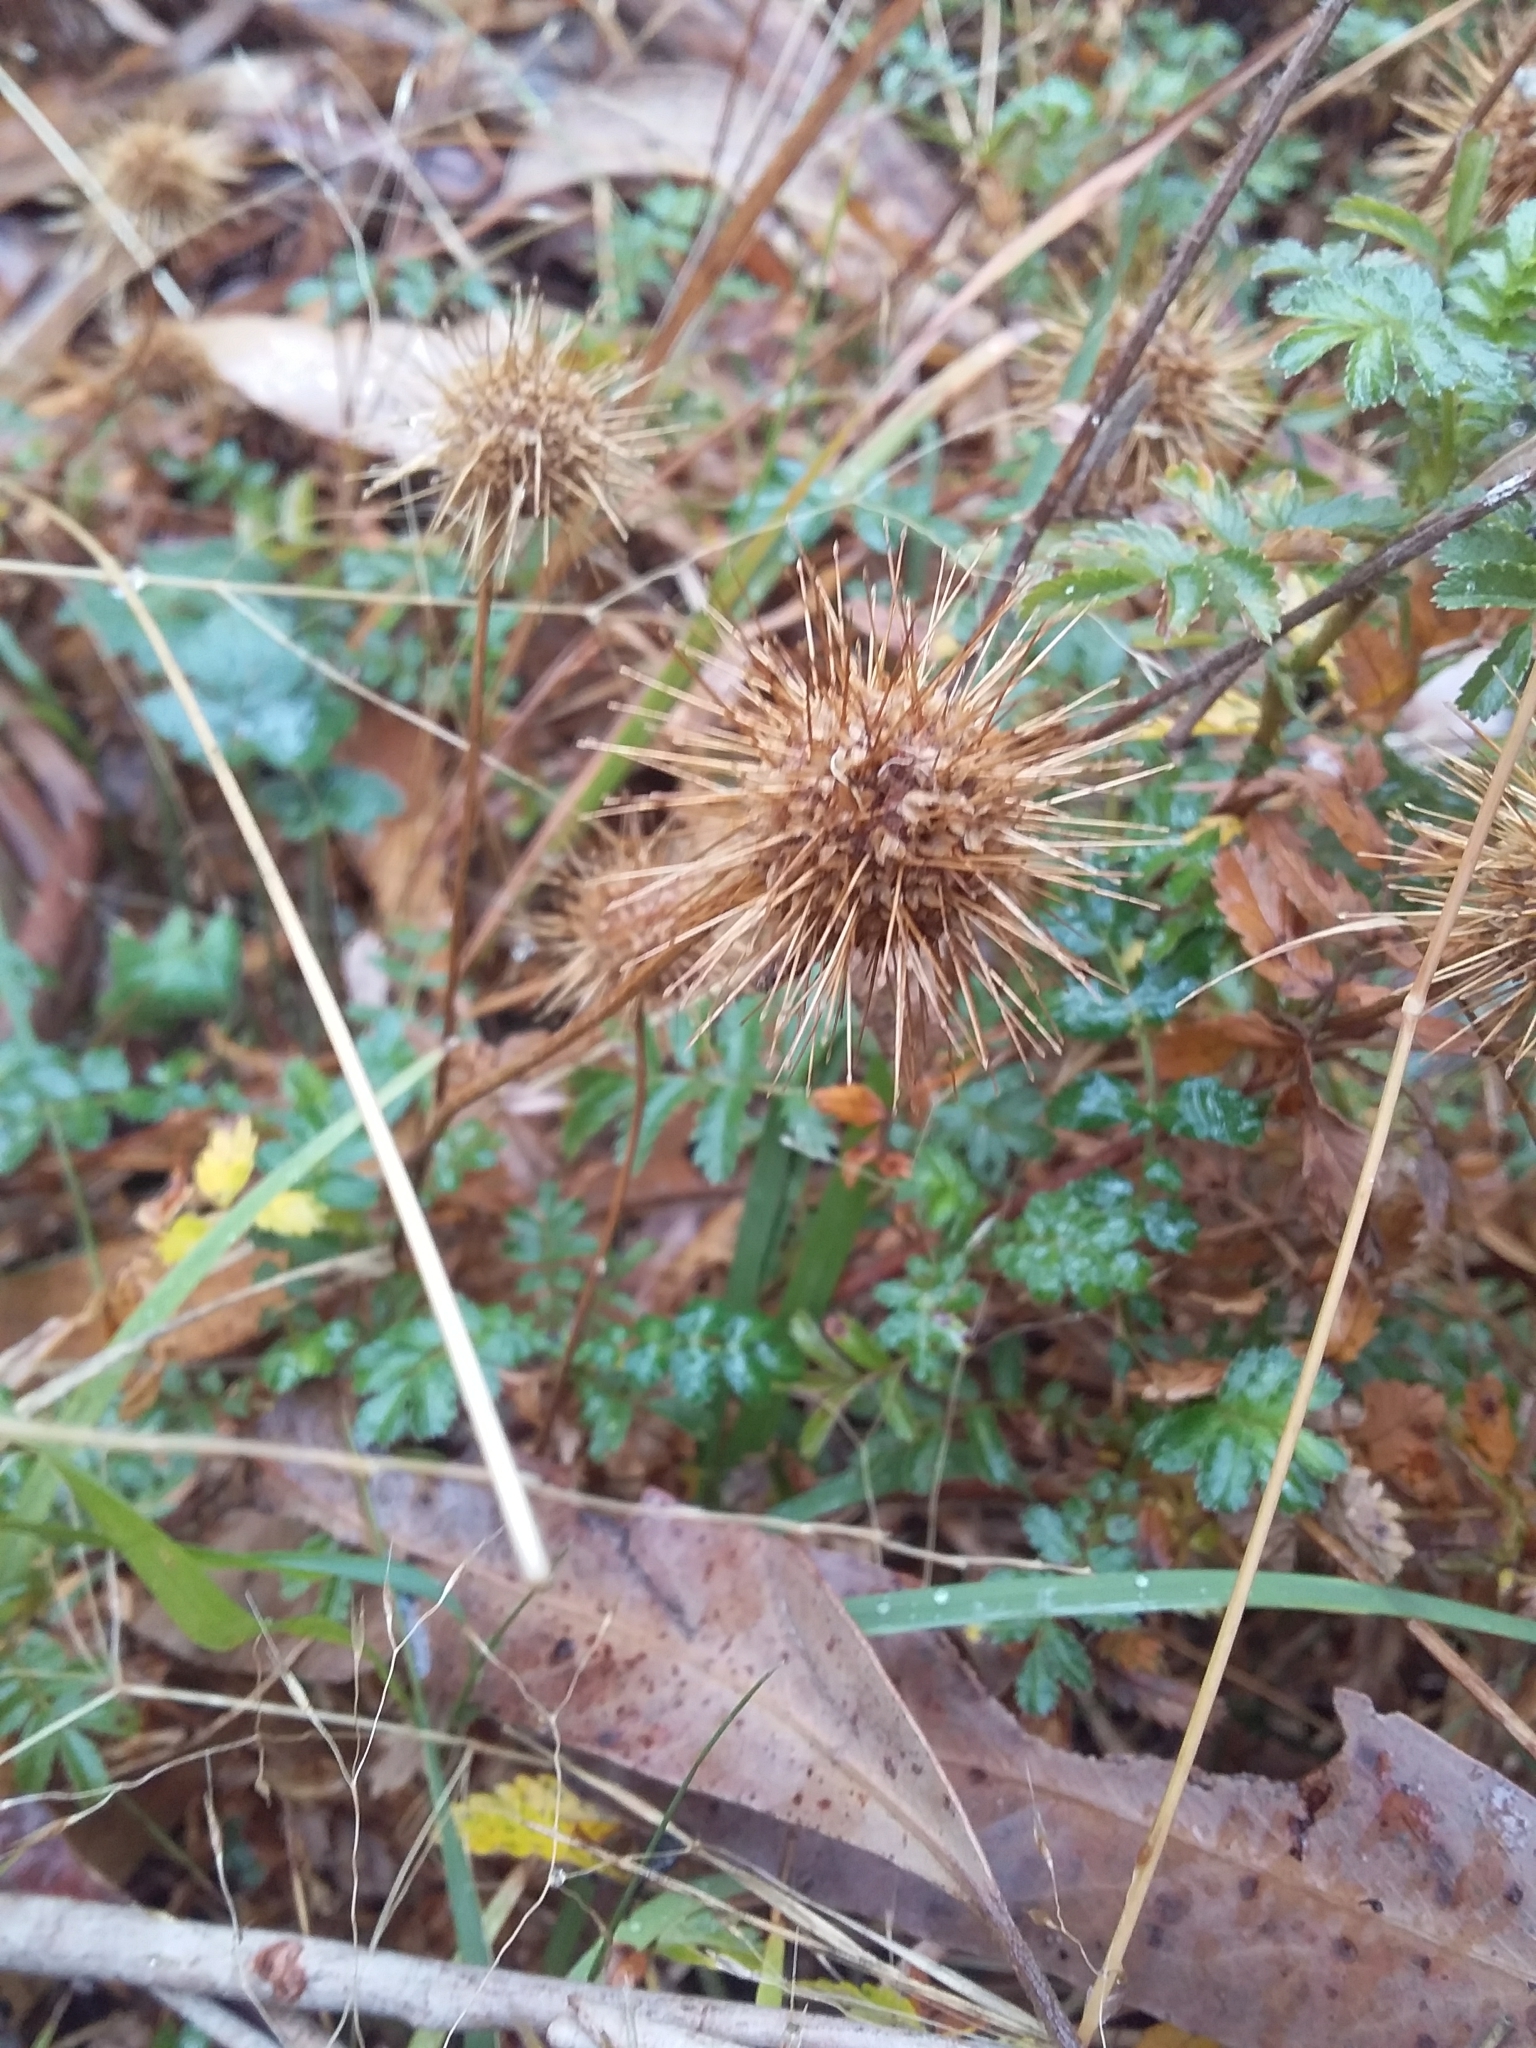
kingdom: Plantae
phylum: Tracheophyta
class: Magnoliopsida
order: Rosales
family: Rosaceae
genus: Acaena
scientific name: Acaena novae-zelandiae
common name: Pirri-pirri-bur
